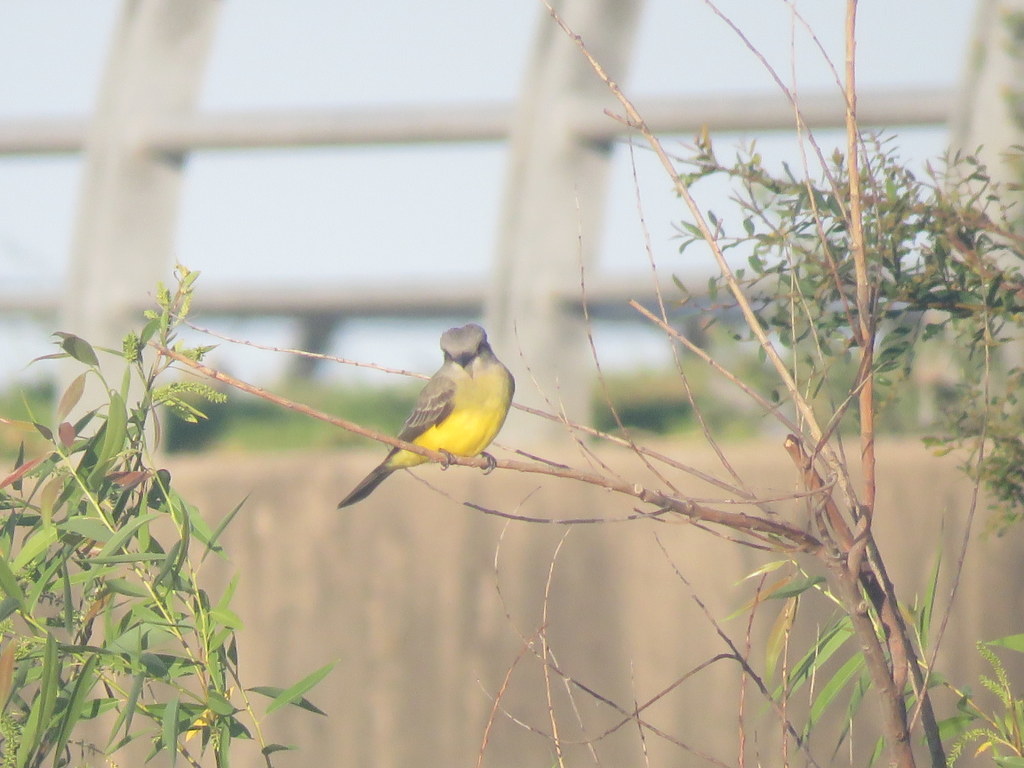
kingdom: Animalia
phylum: Chordata
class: Aves
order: Passeriformes
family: Tyrannidae
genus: Tyrannus
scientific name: Tyrannus melancholicus
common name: Tropical kingbird
